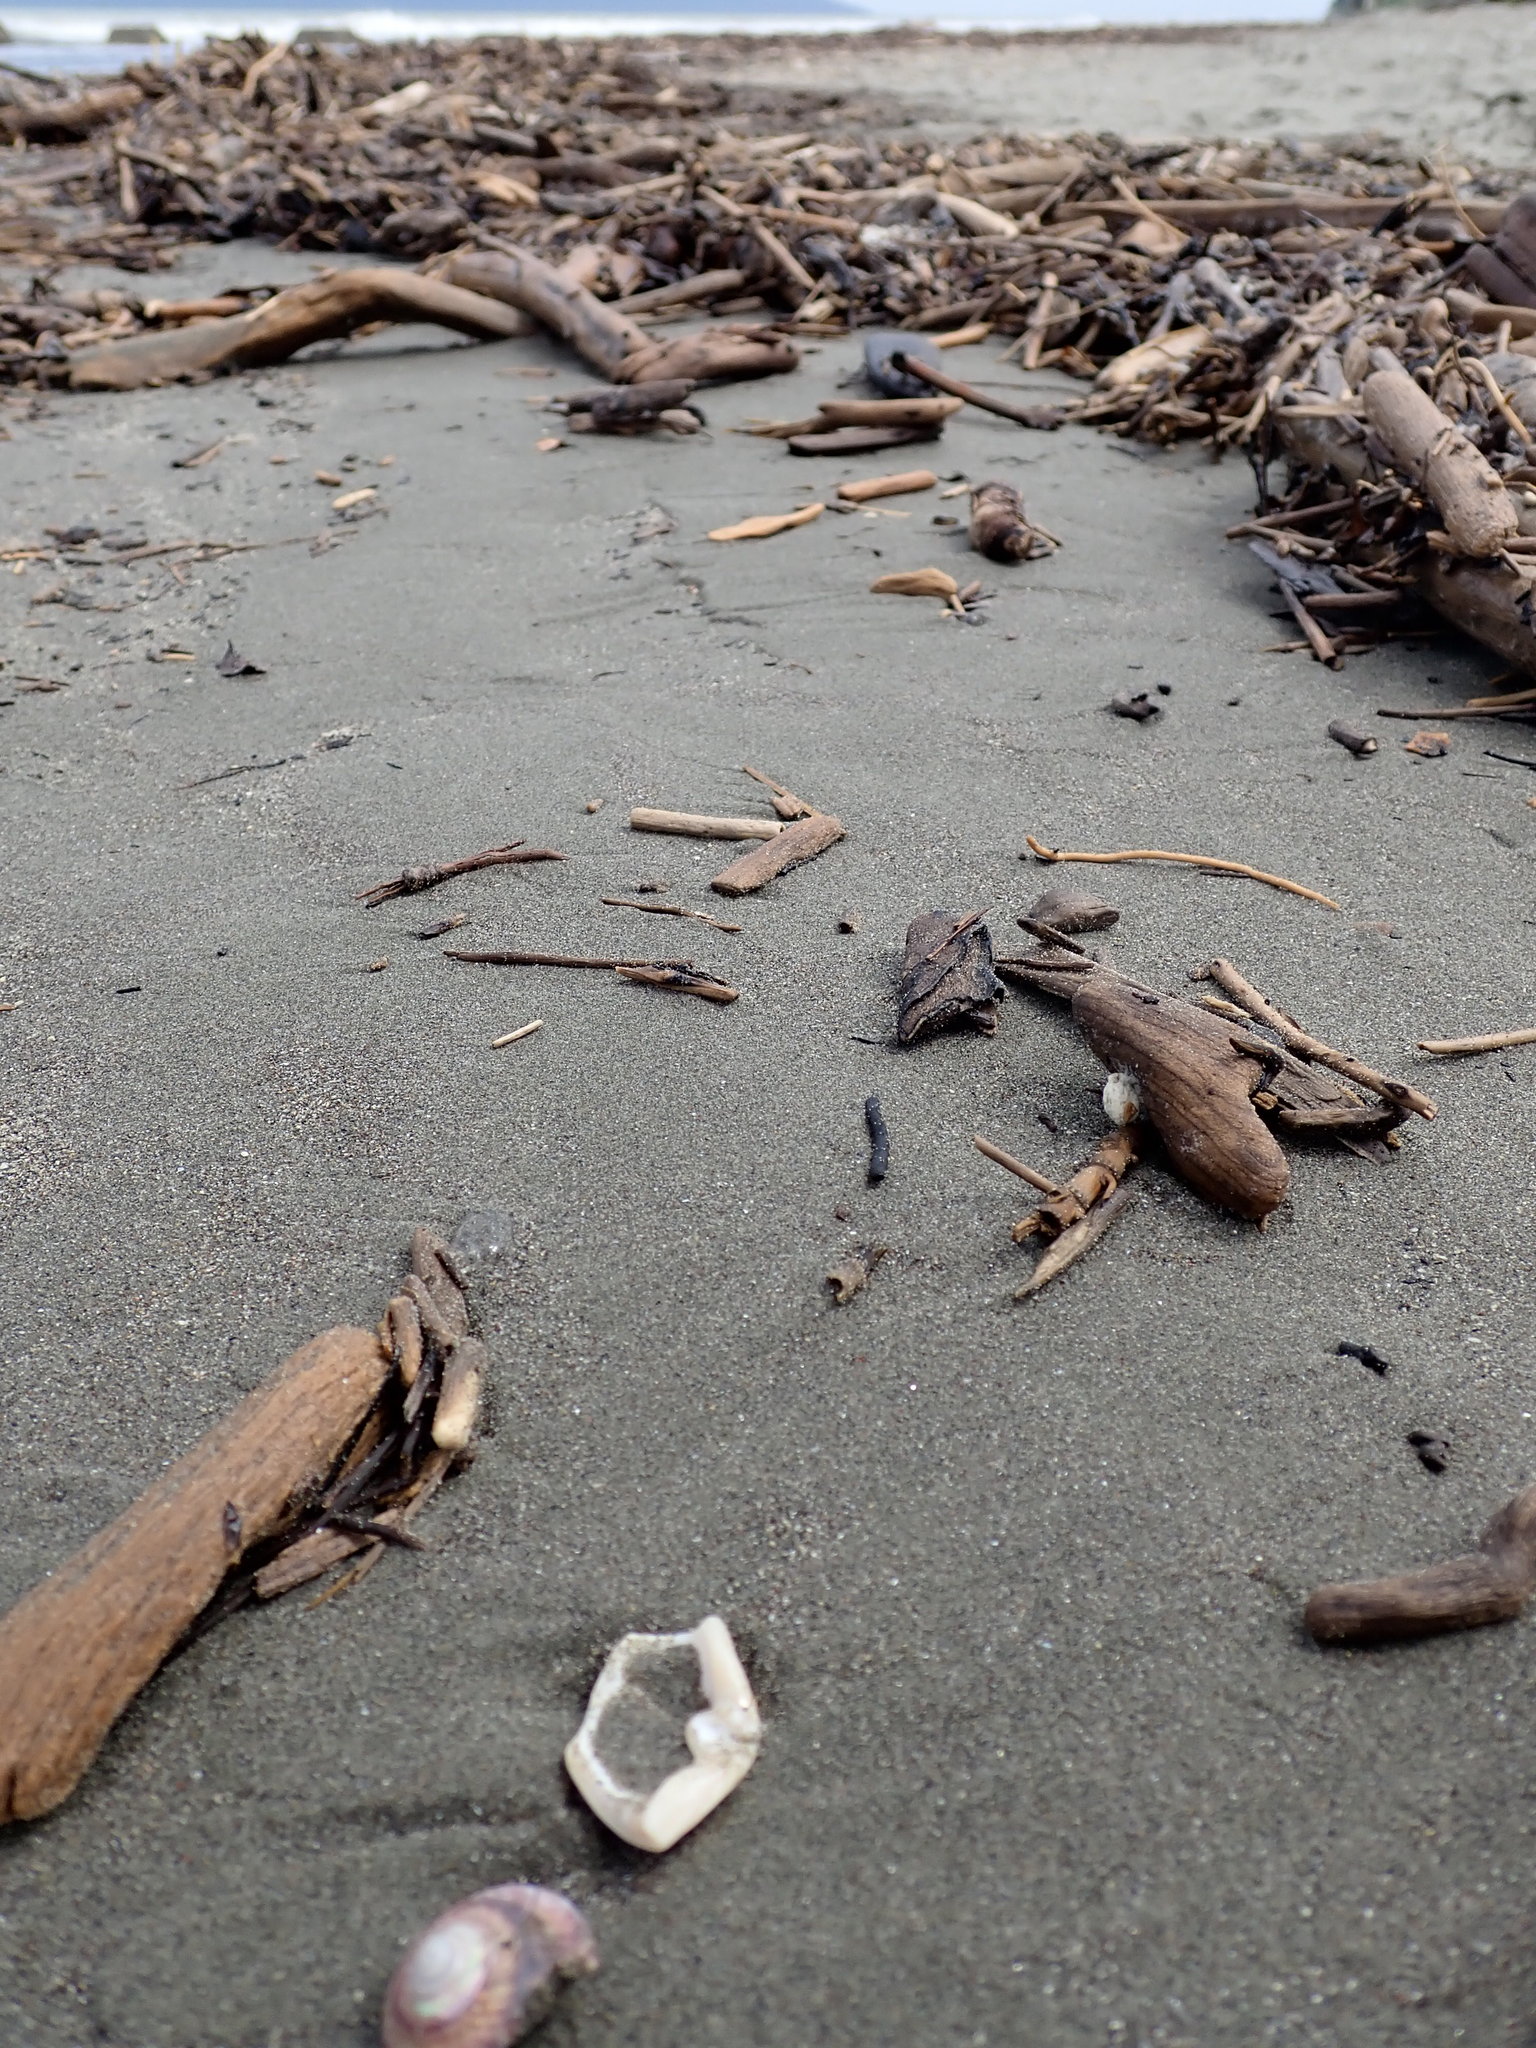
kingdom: Animalia
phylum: Mollusca
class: Gastropoda
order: Trochida
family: Trochidae
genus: Zethalia
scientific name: Zethalia zelandica
